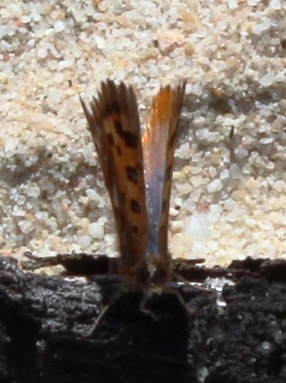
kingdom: Animalia
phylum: Arthropoda
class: Insecta
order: Lepidoptera
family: Lycaenidae
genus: Chrysoritis
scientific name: Chrysoritis rileyi
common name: Glitter opal
